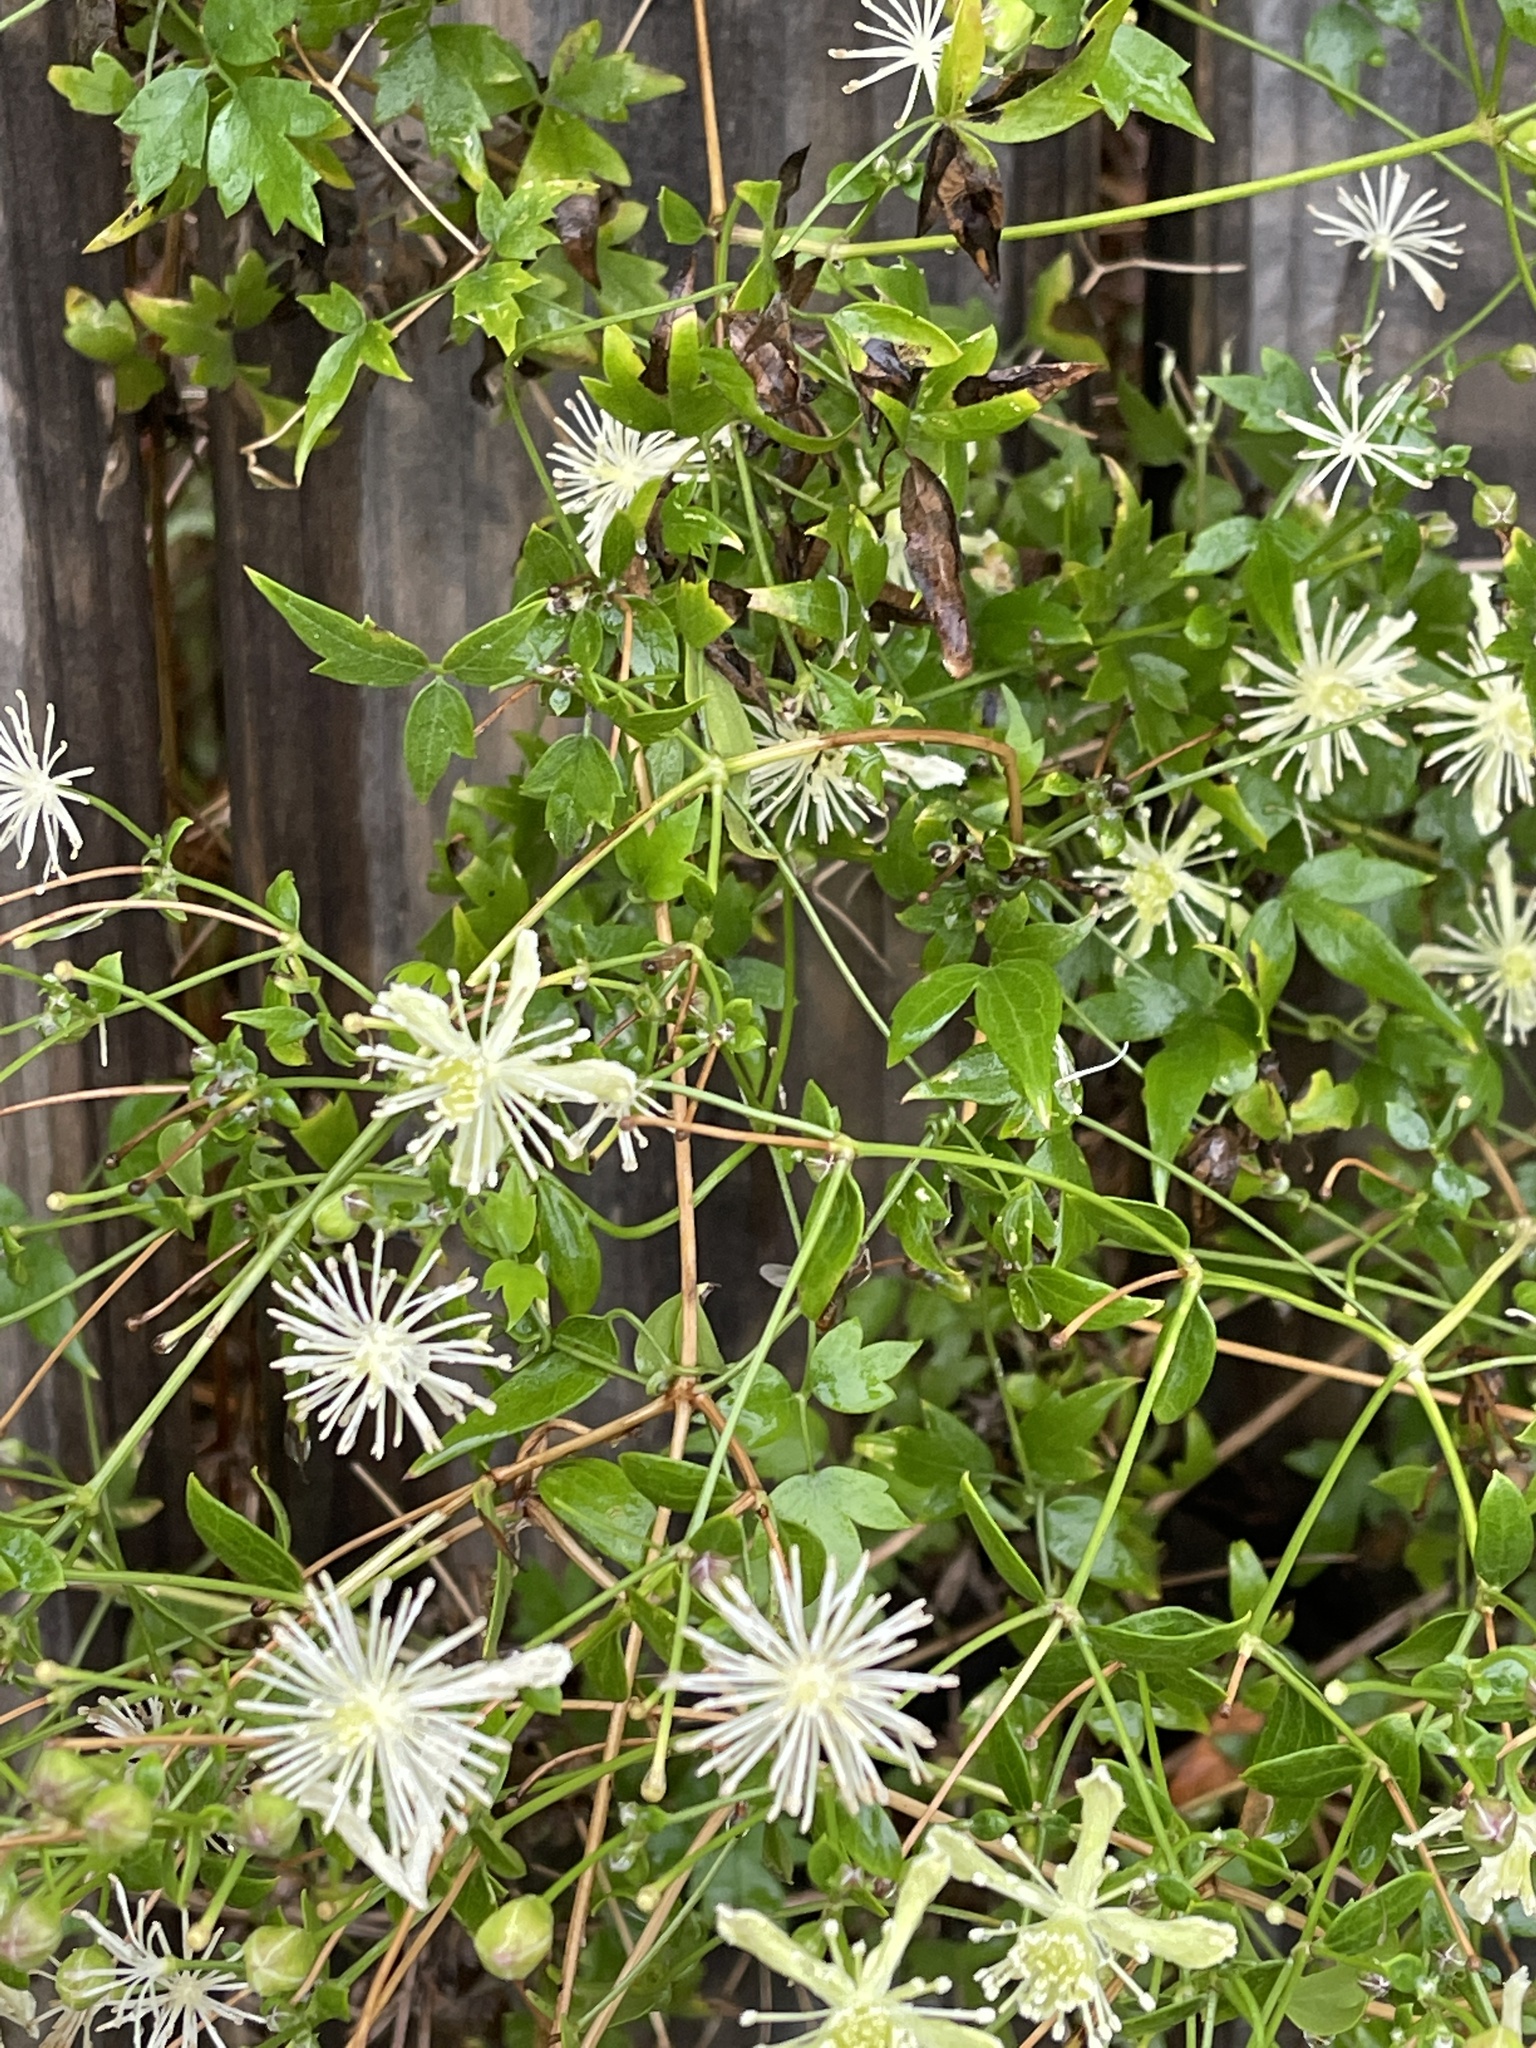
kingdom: Plantae
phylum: Tracheophyta
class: Magnoliopsida
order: Ranunculales
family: Ranunculaceae
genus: Clematis
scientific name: Clematis drummondii
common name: Texas virgin's bower
